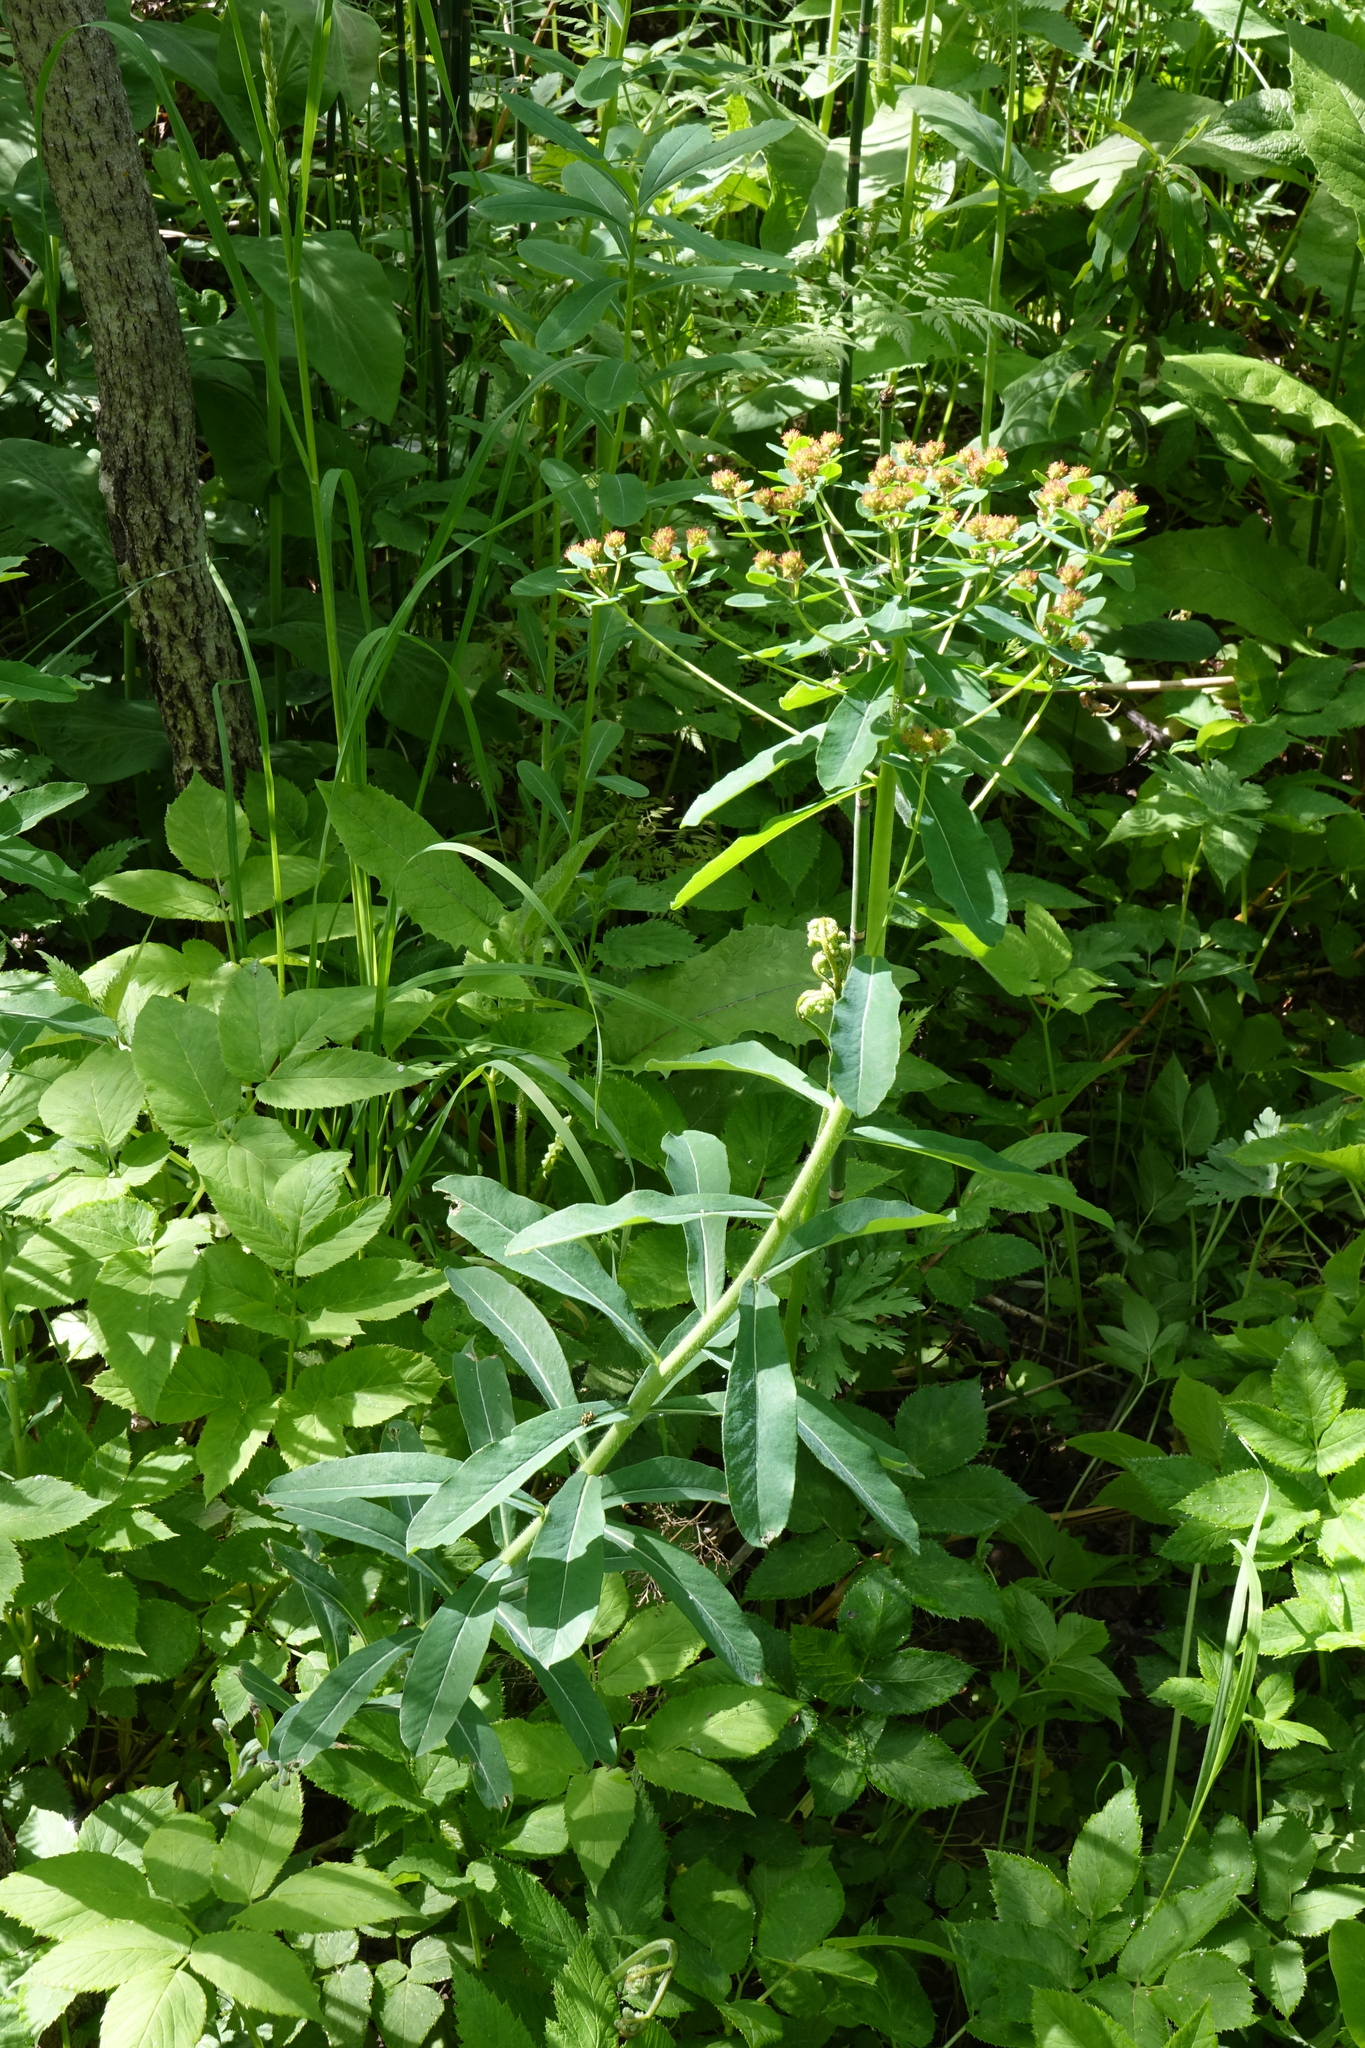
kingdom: Plantae
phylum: Tracheophyta
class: Magnoliopsida
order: Malpighiales
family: Euphorbiaceae
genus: Euphorbia
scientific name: Euphorbia pilosa
